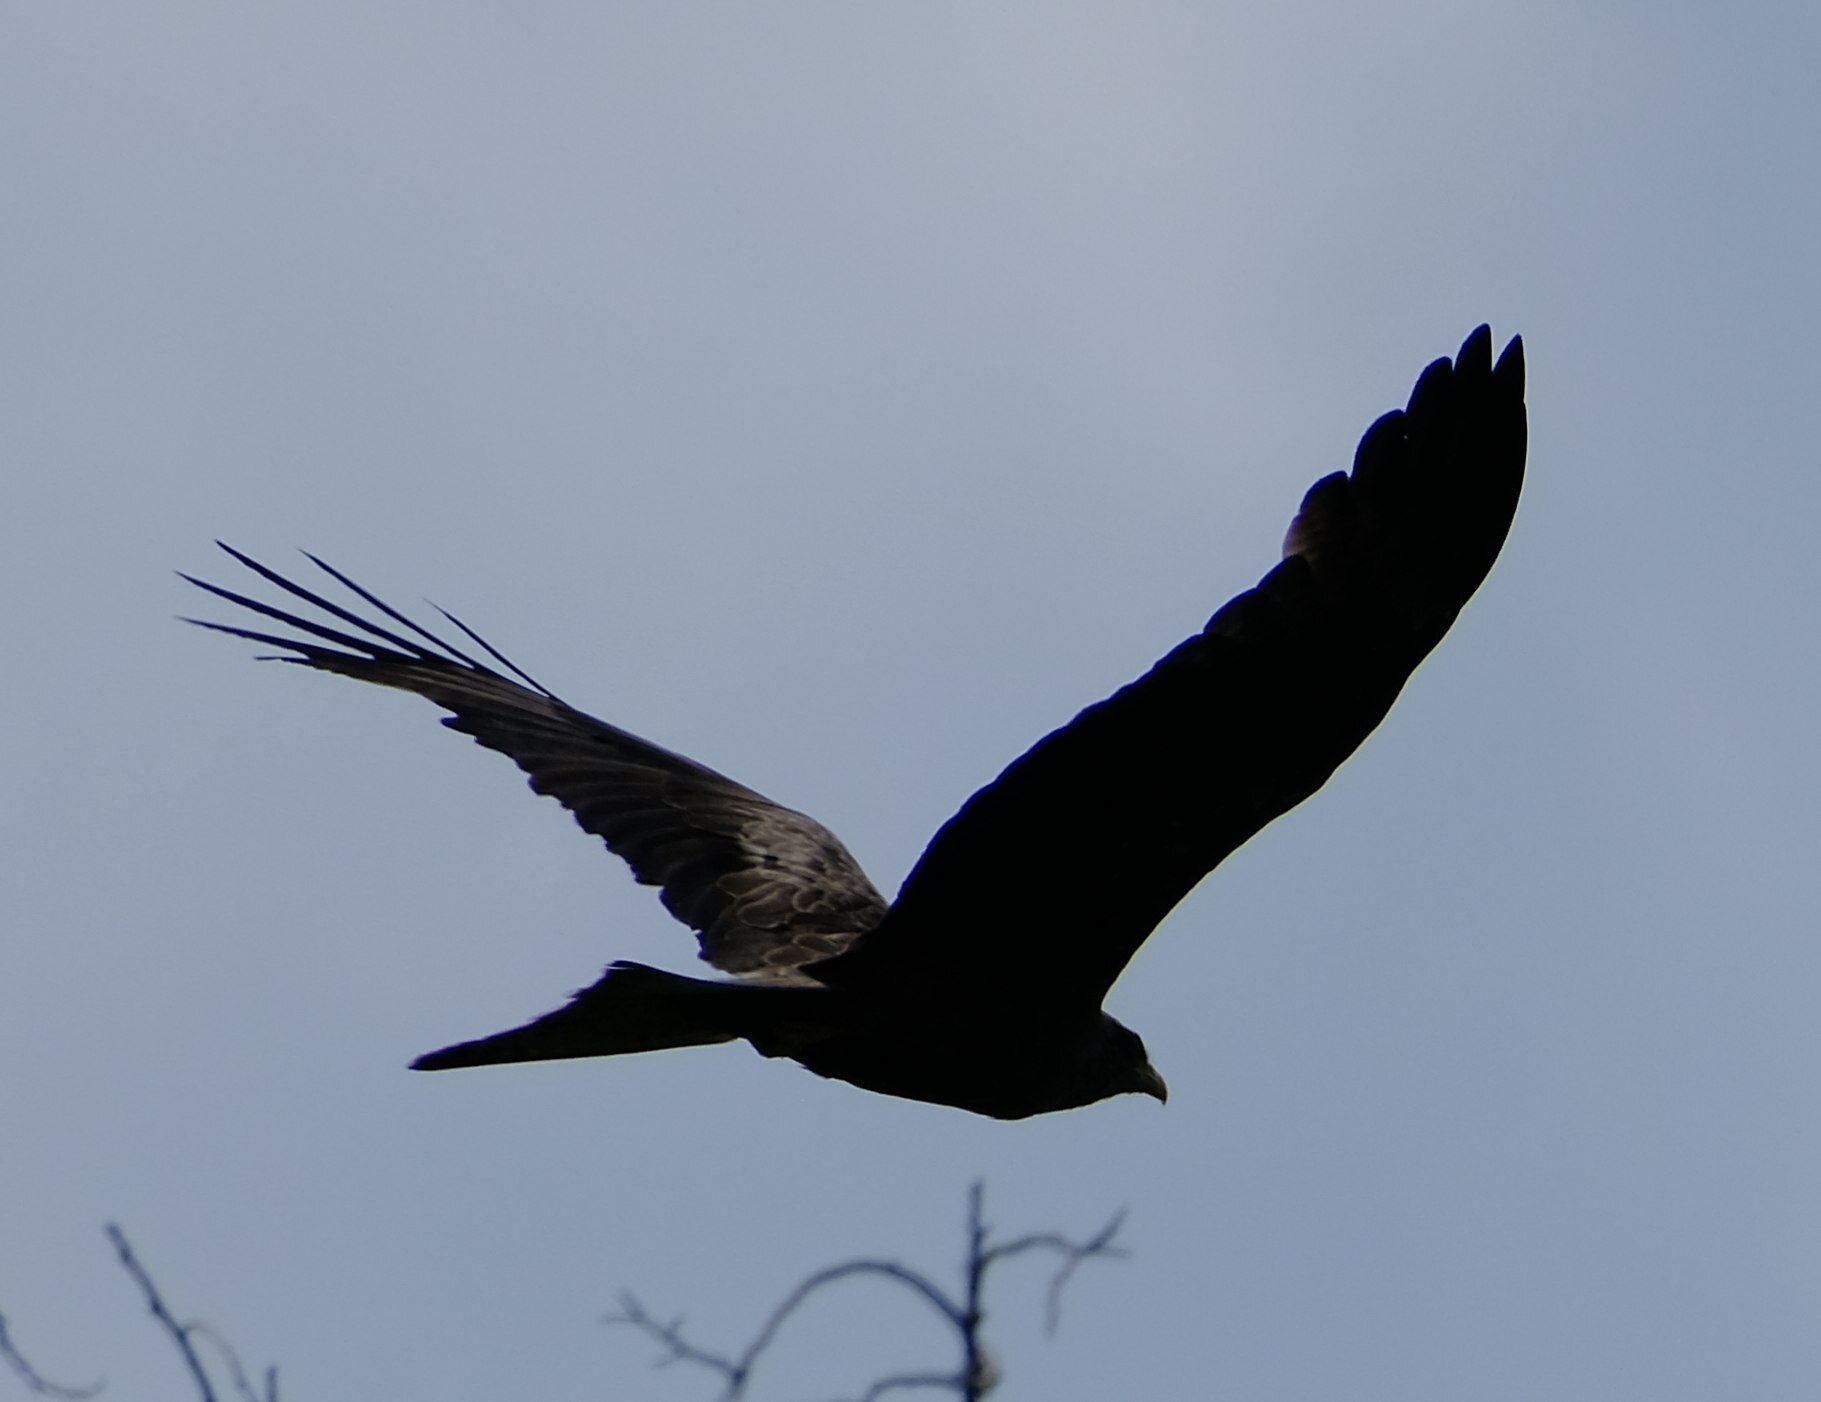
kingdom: Animalia
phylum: Chordata
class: Aves
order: Accipitriformes
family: Accipitridae
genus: Milvus
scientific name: Milvus migrans
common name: Black kite
